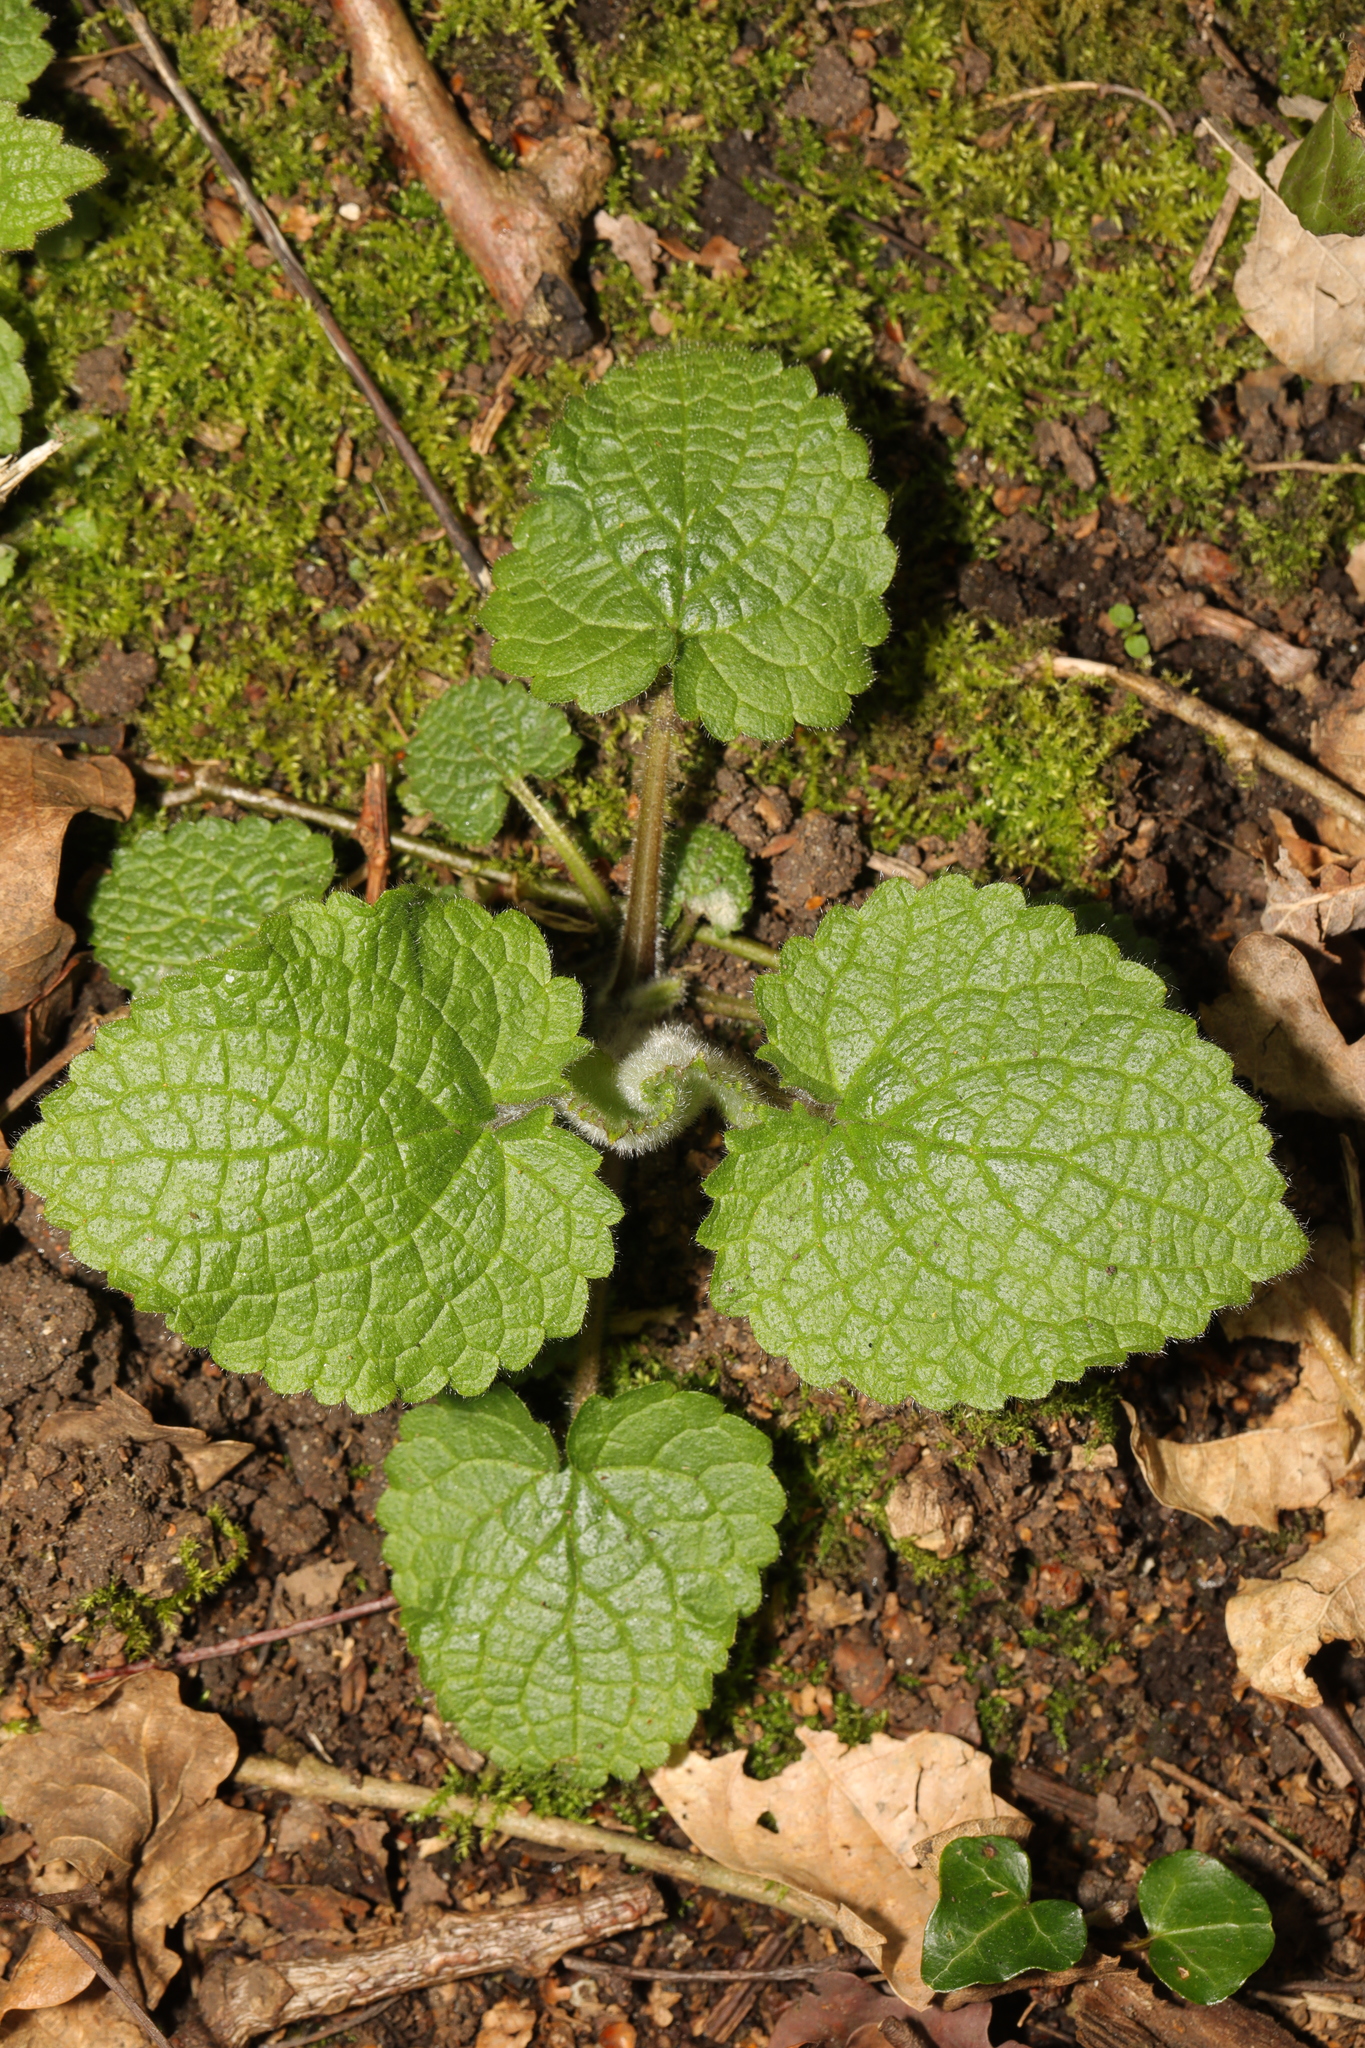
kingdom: Plantae
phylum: Tracheophyta
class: Magnoliopsida
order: Lamiales
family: Lamiaceae
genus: Stachys
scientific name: Stachys sylvatica
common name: Hedge woundwort
